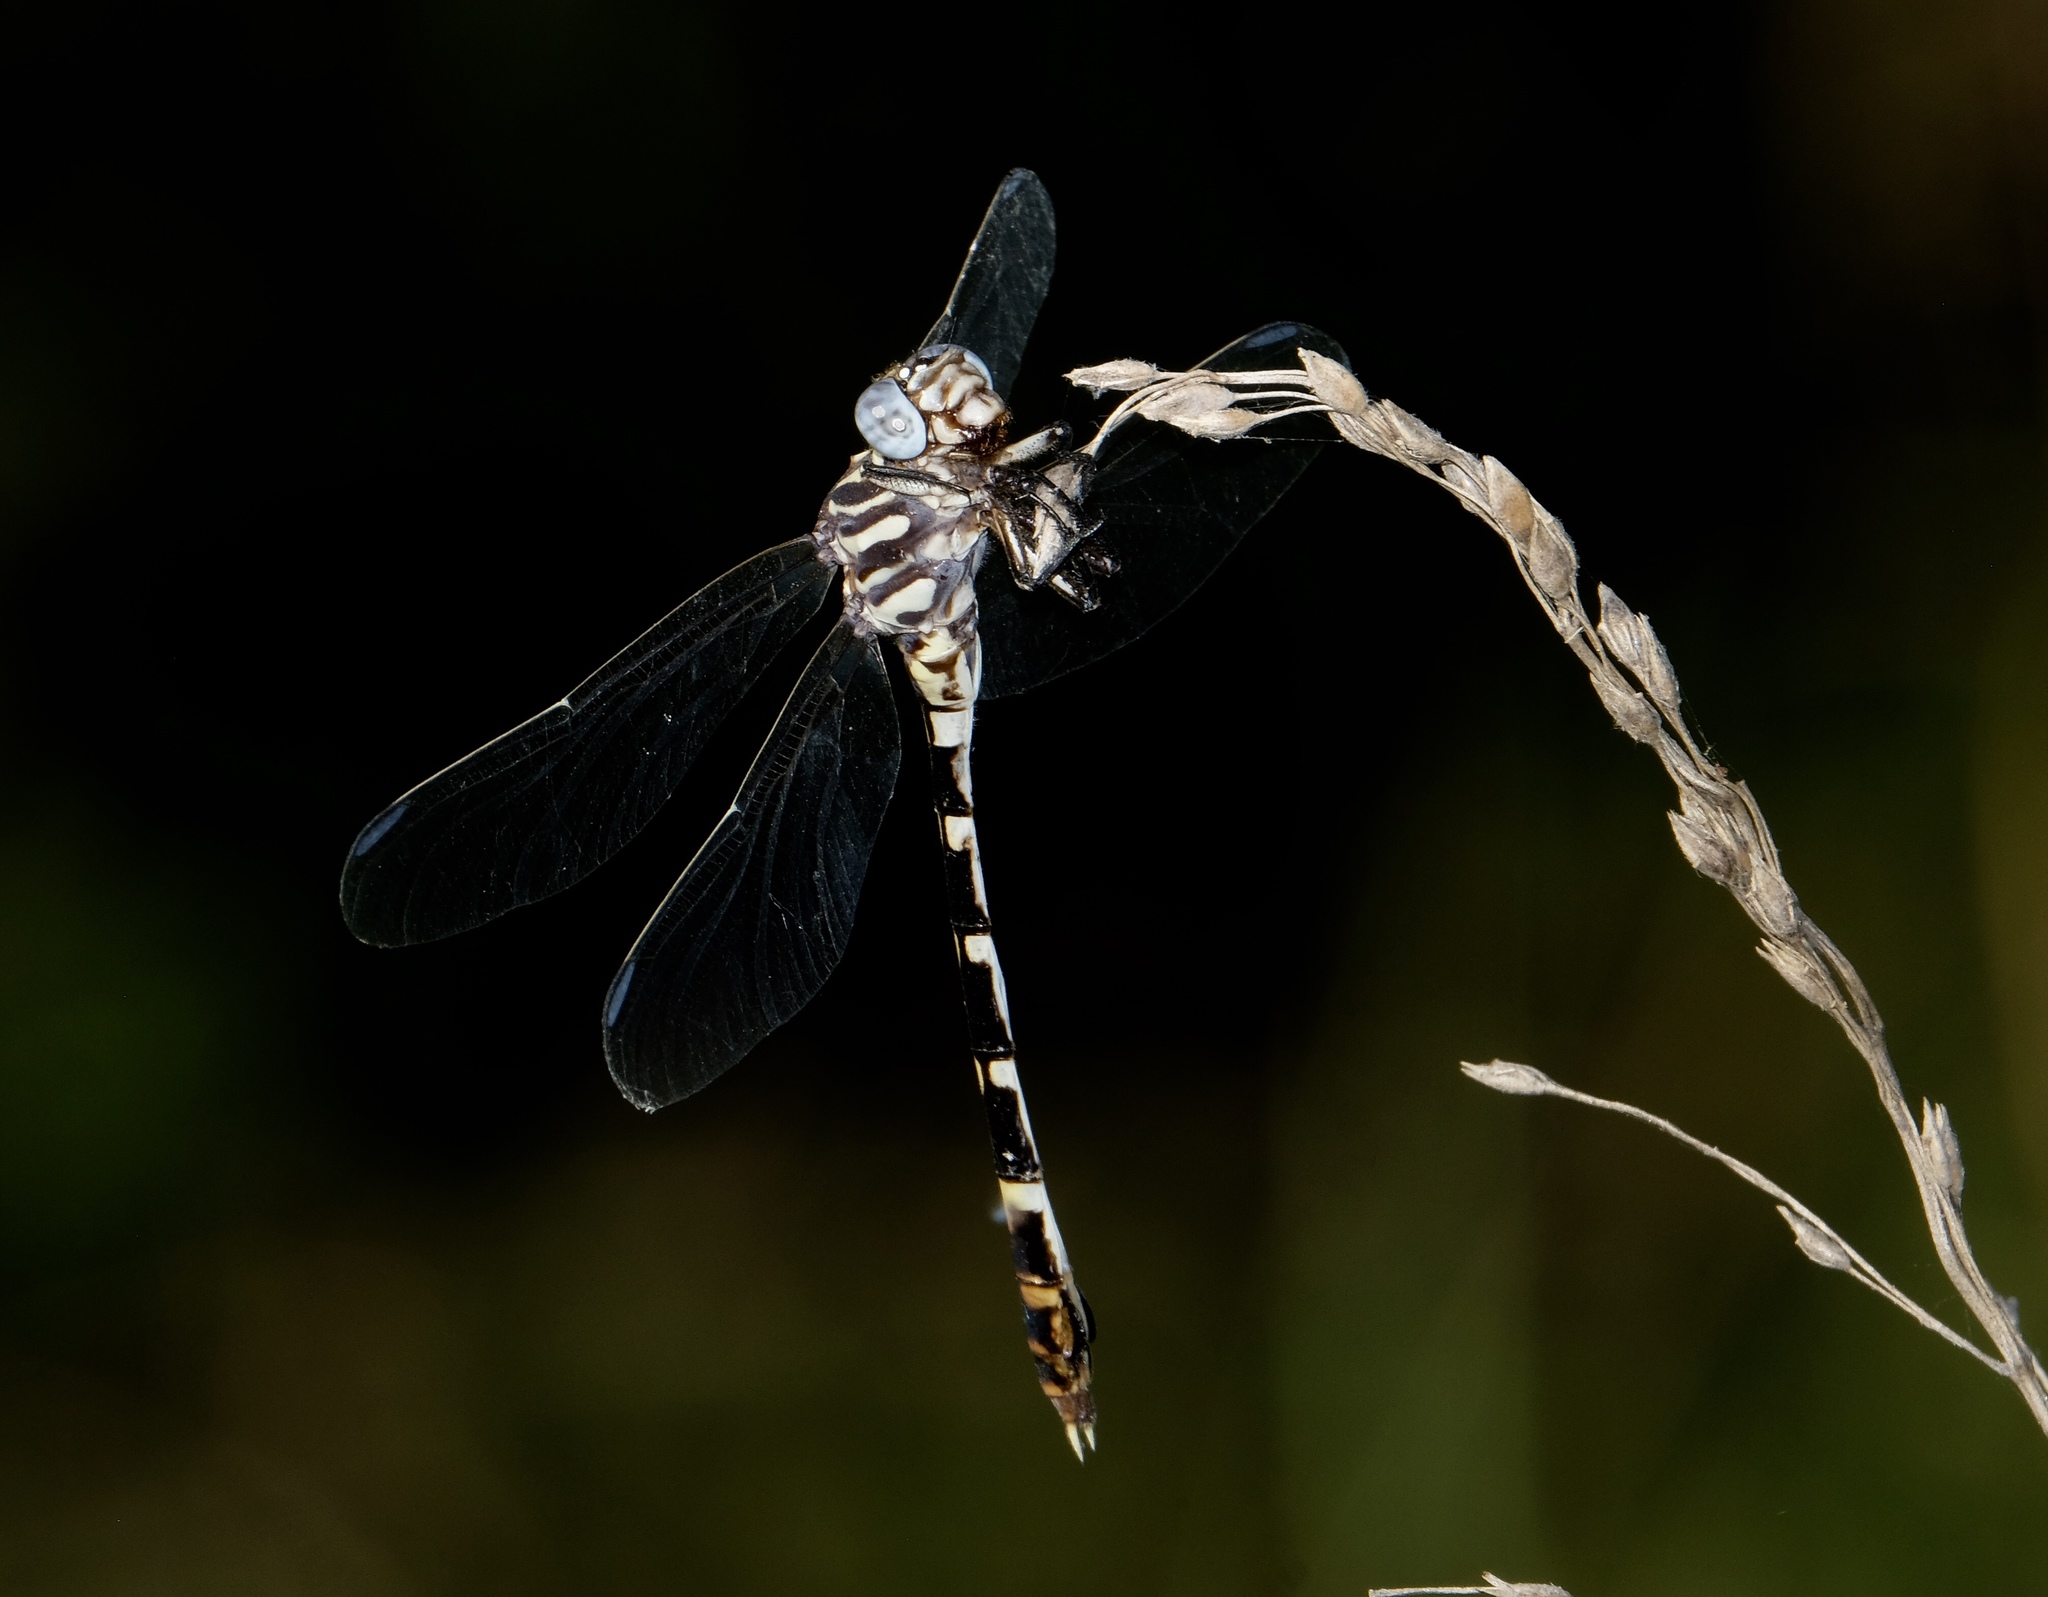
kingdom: Animalia
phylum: Arthropoda
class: Insecta
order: Odonata
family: Gomphidae
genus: Phyllogomphoides
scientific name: Phyllogomphoides albrighti
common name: Five-striped leaftail
